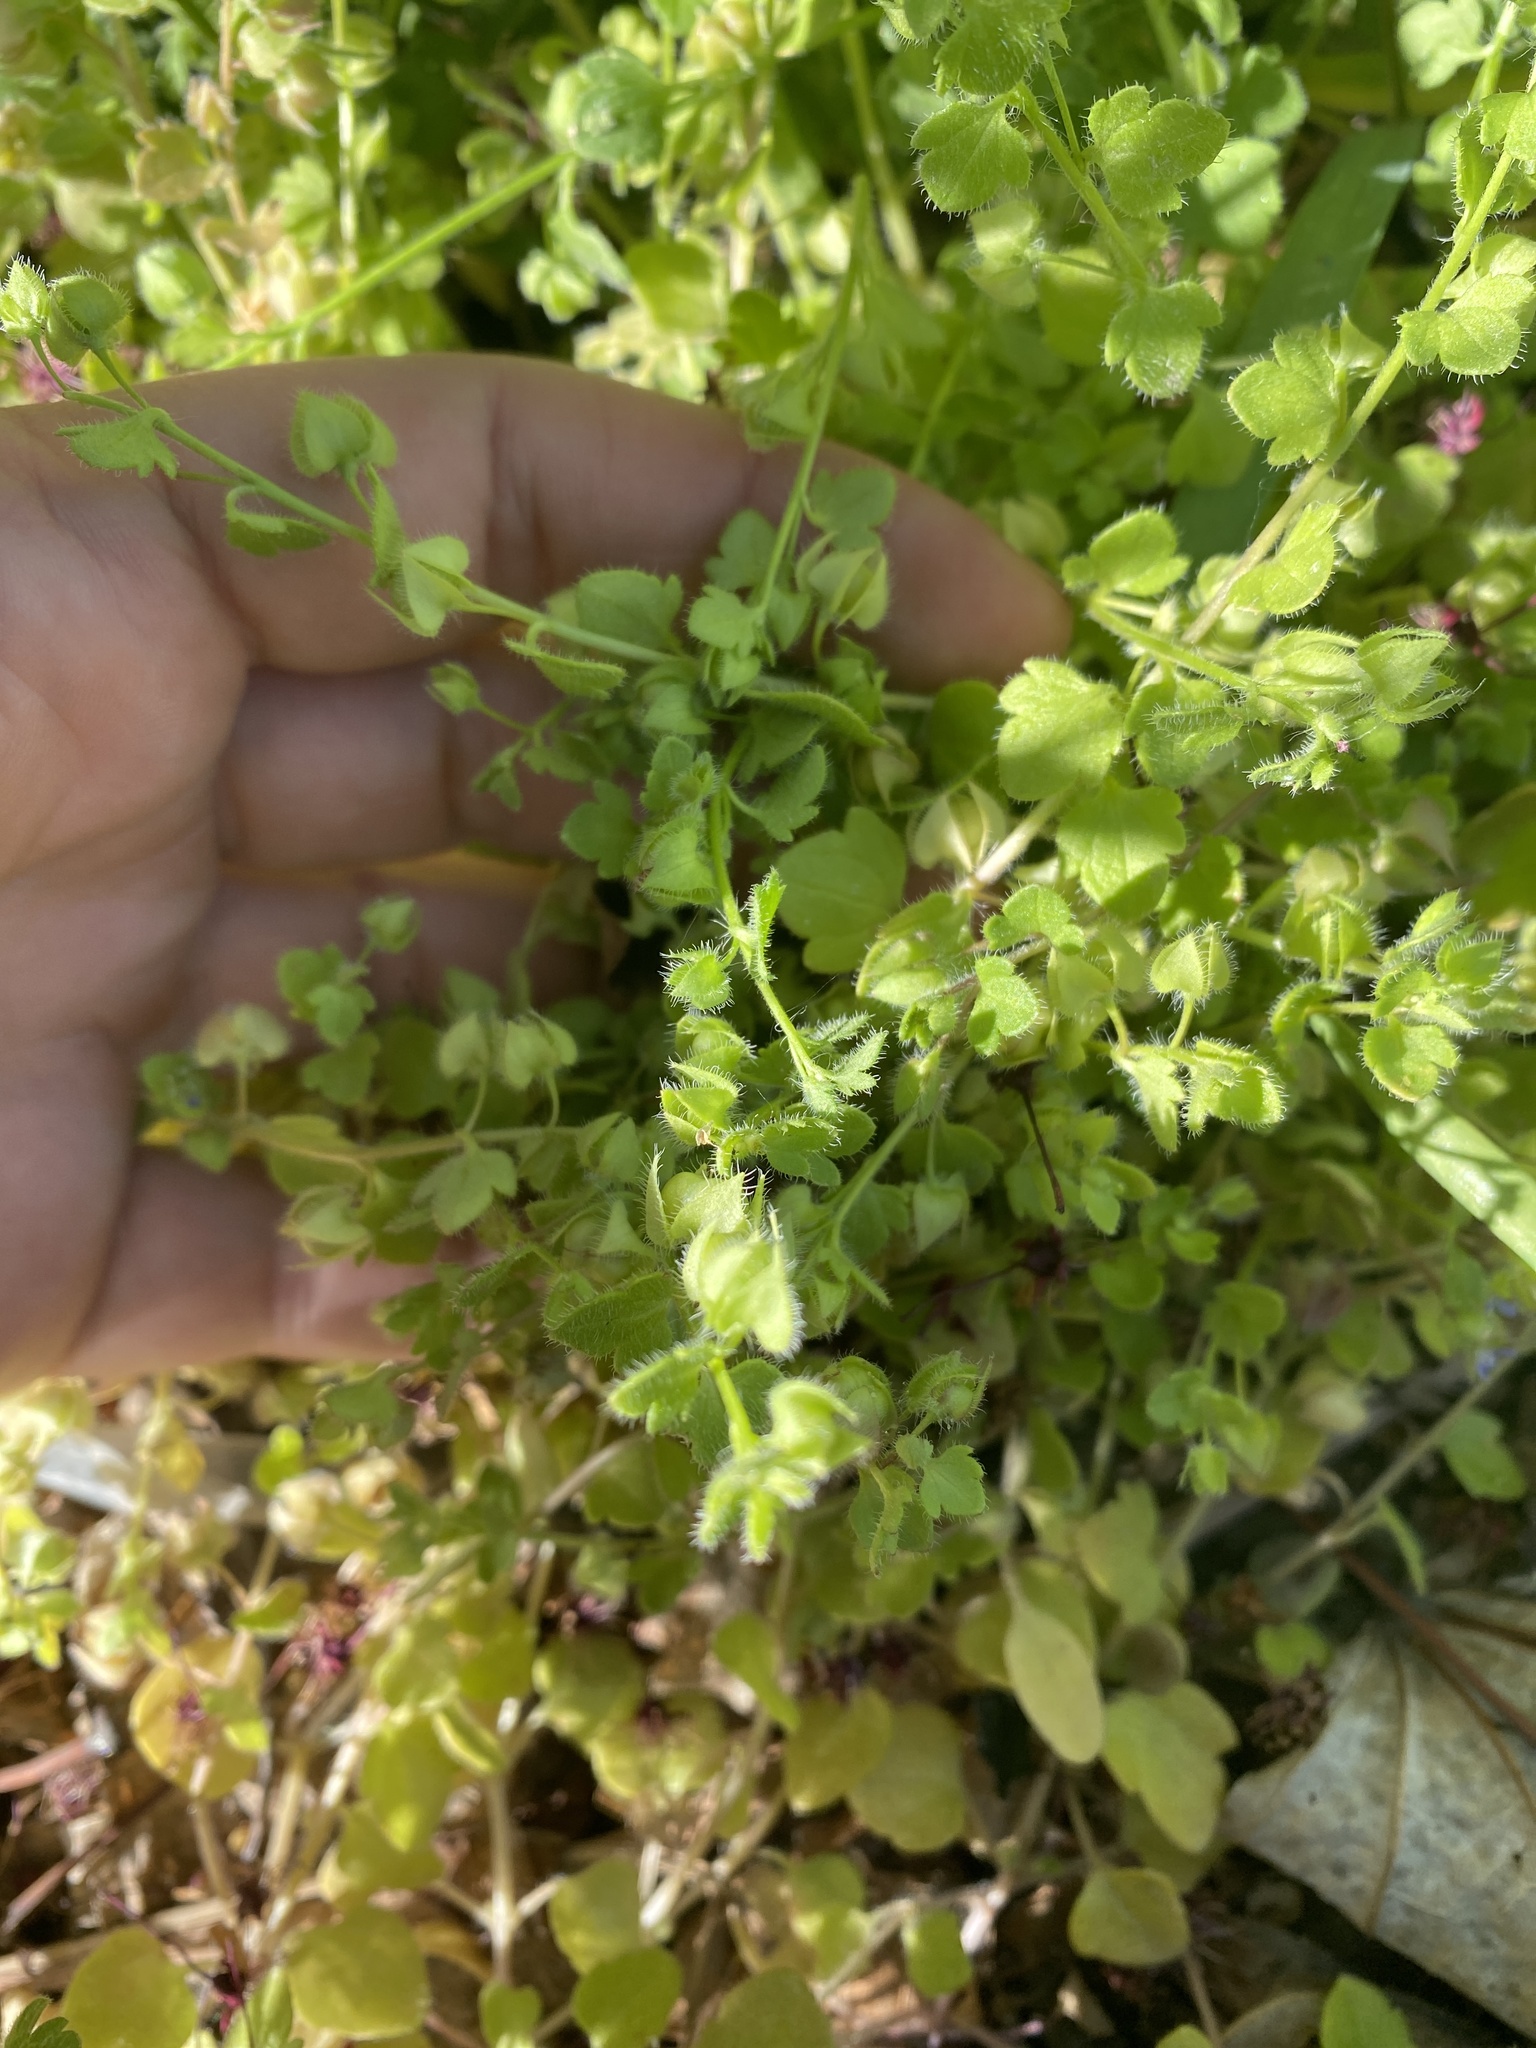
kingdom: Plantae
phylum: Tracheophyta
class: Magnoliopsida
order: Lamiales
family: Plantaginaceae
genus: Veronica
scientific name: Veronica hederifolia
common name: Ivy-leaved speedwell
